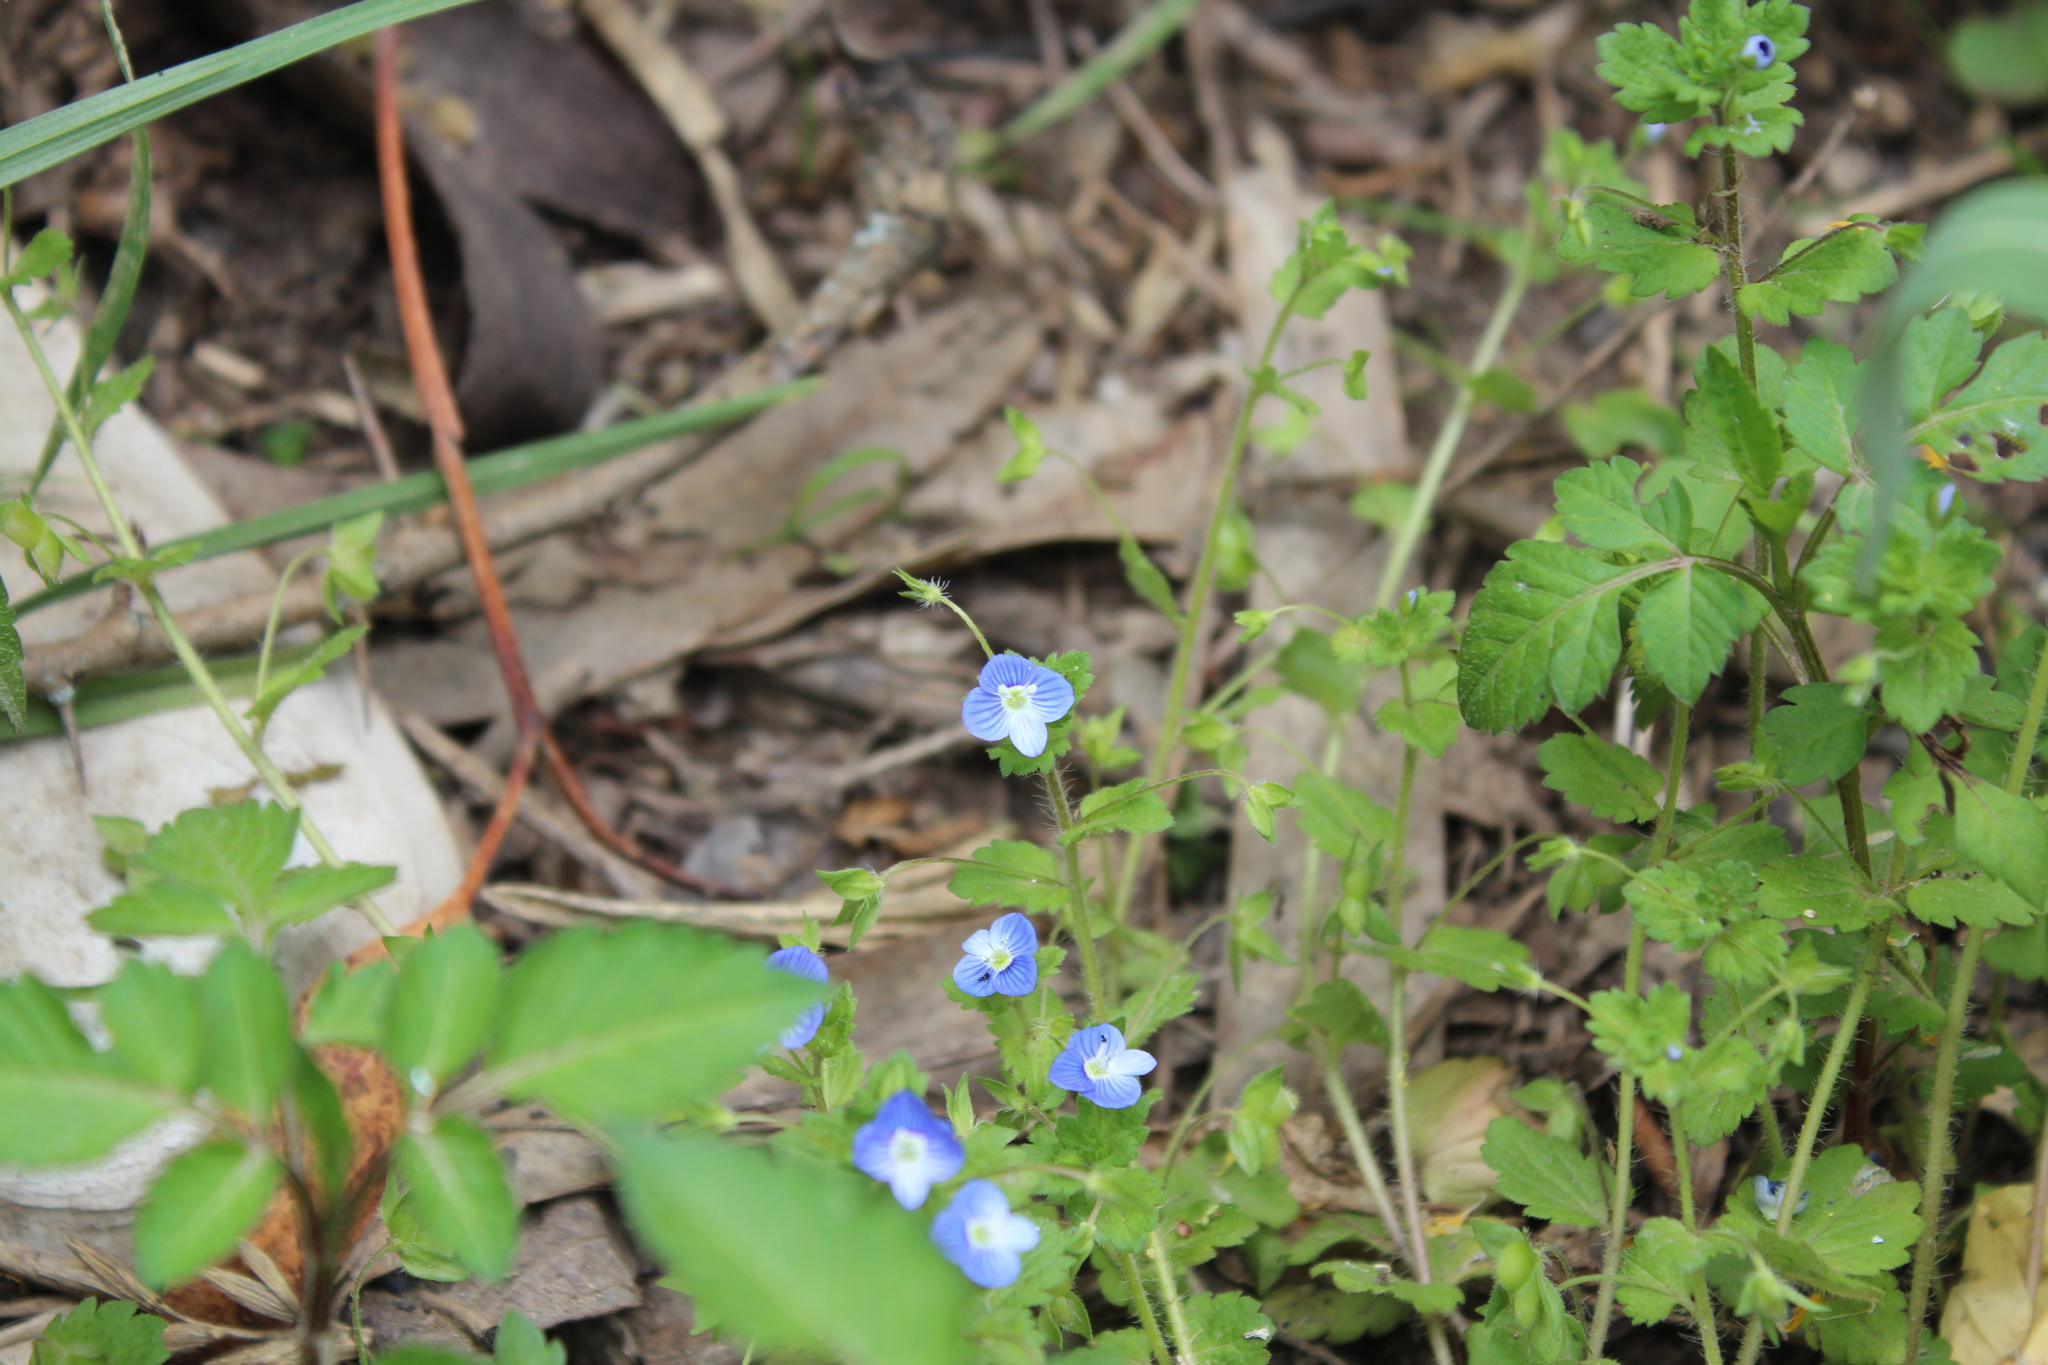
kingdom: Plantae
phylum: Tracheophyta
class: Magnoliopsida
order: Lamiales
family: Plantaginaceae
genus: Veronica
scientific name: Veronica persica
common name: Common field-speedwell
